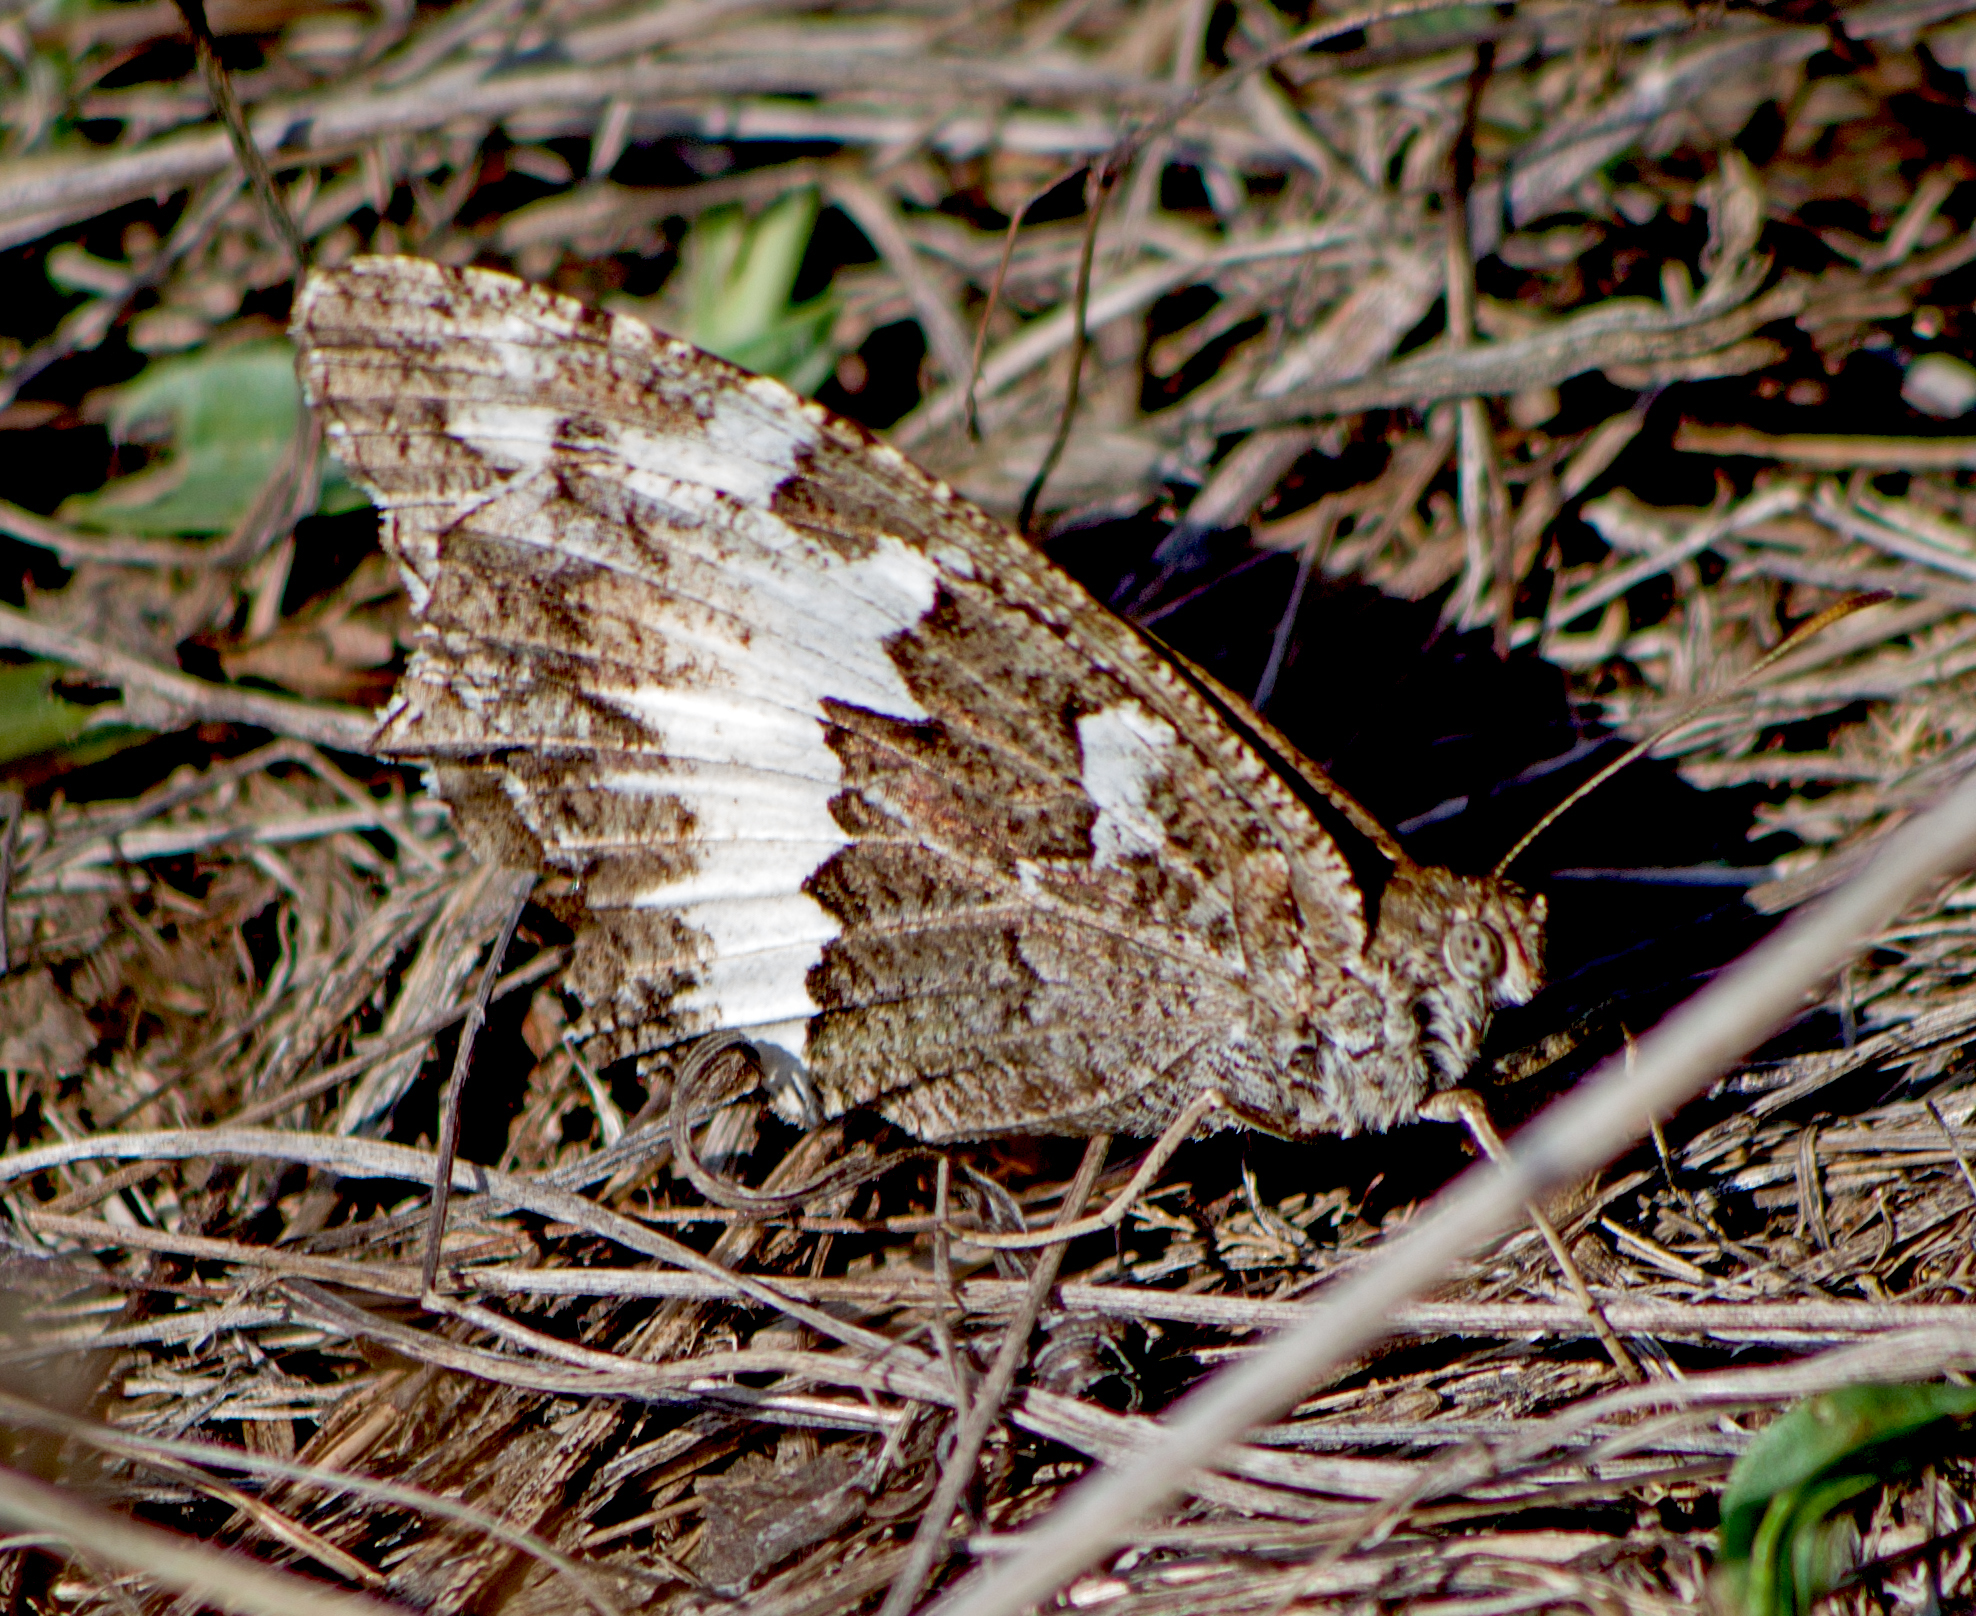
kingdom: Animalia
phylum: Arthropoda
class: Insecta
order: Lepidoptera
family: Lycaenidae
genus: Loweia
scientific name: Loweia tityrus
